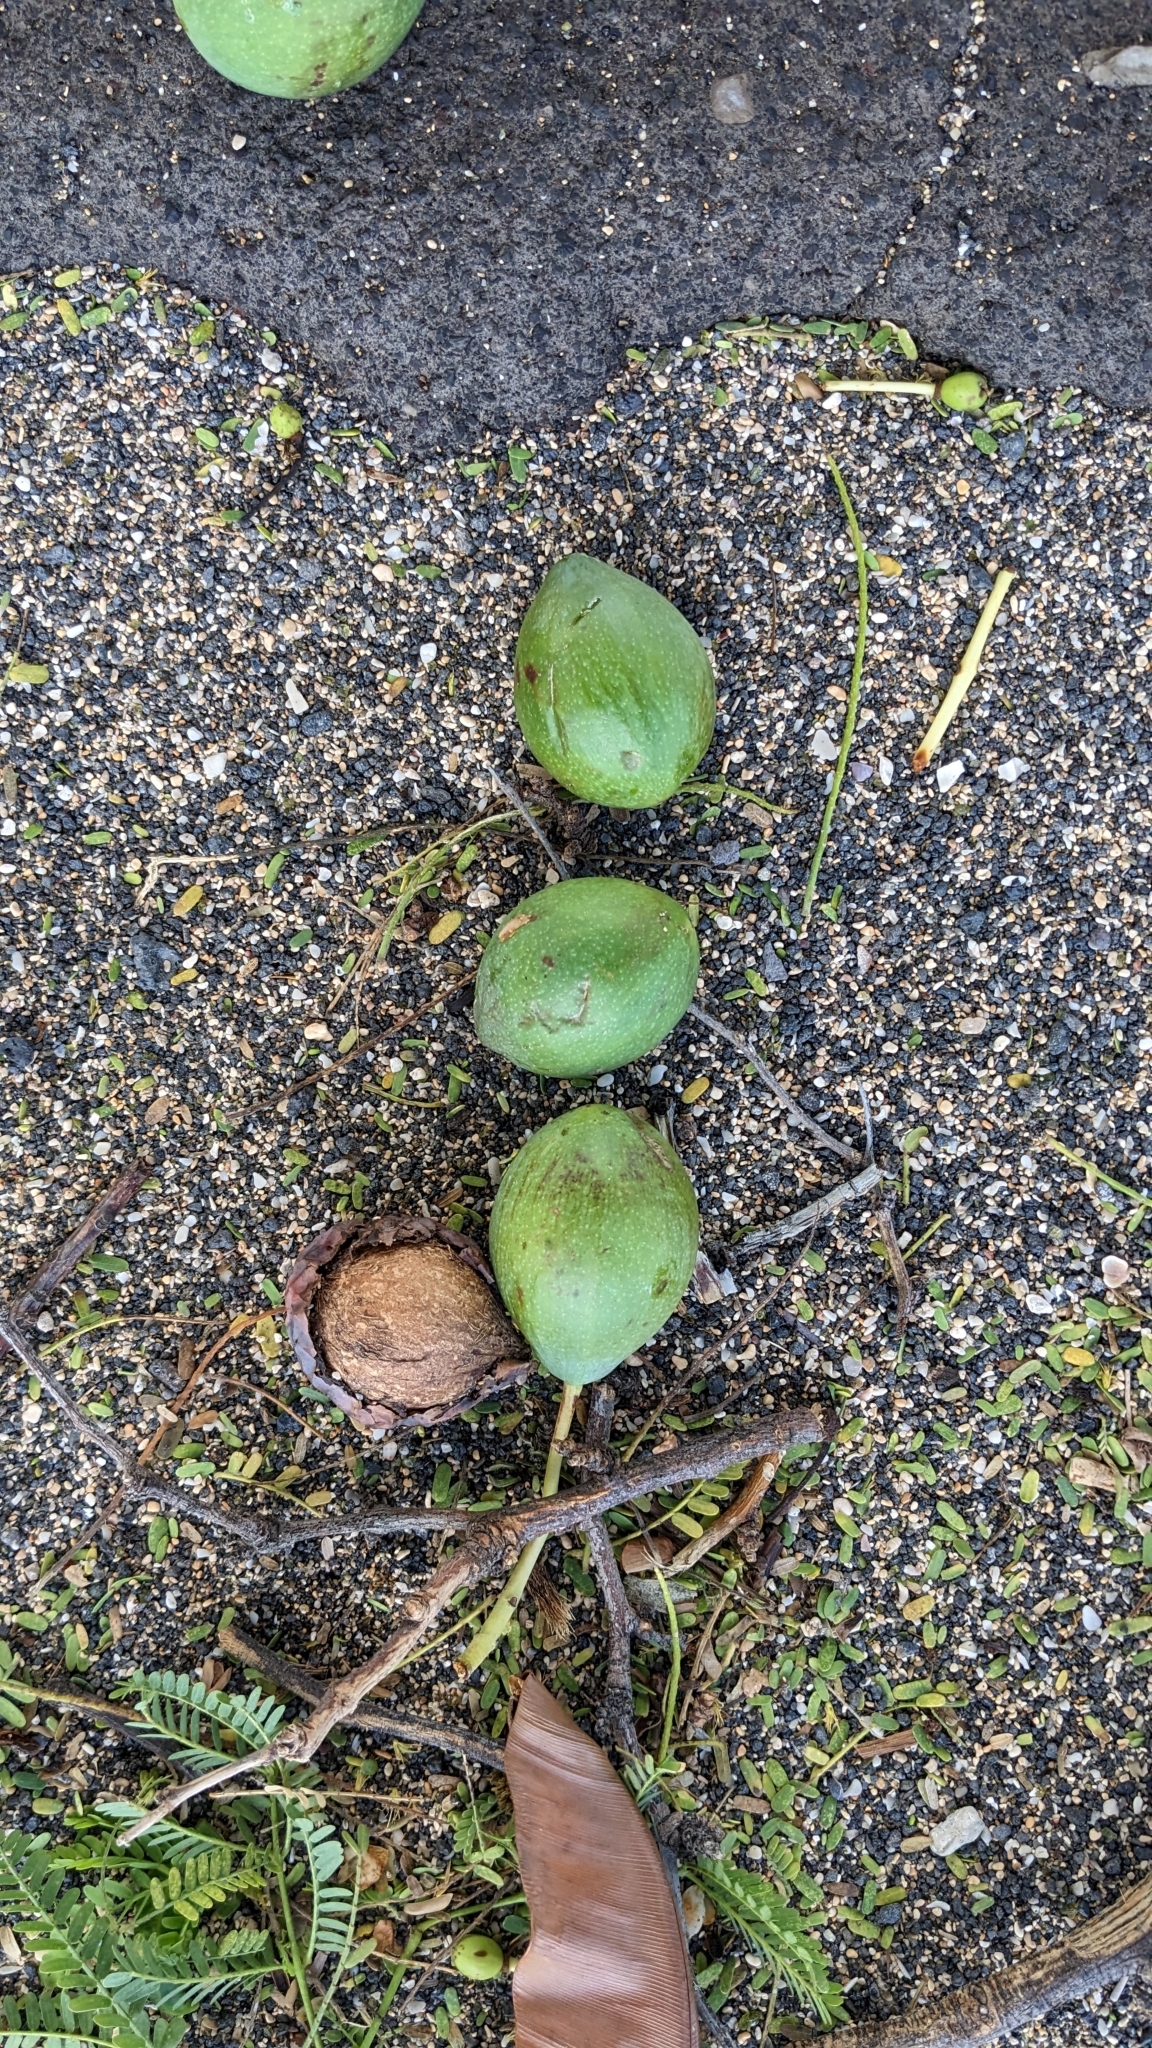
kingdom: Plantae
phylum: Tracheophyta
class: Magnoliopsida
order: Malpighiales
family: Calophyllaceae
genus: Calophyllum
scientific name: Calophyllum inophyllum
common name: Alexandrian laurel
